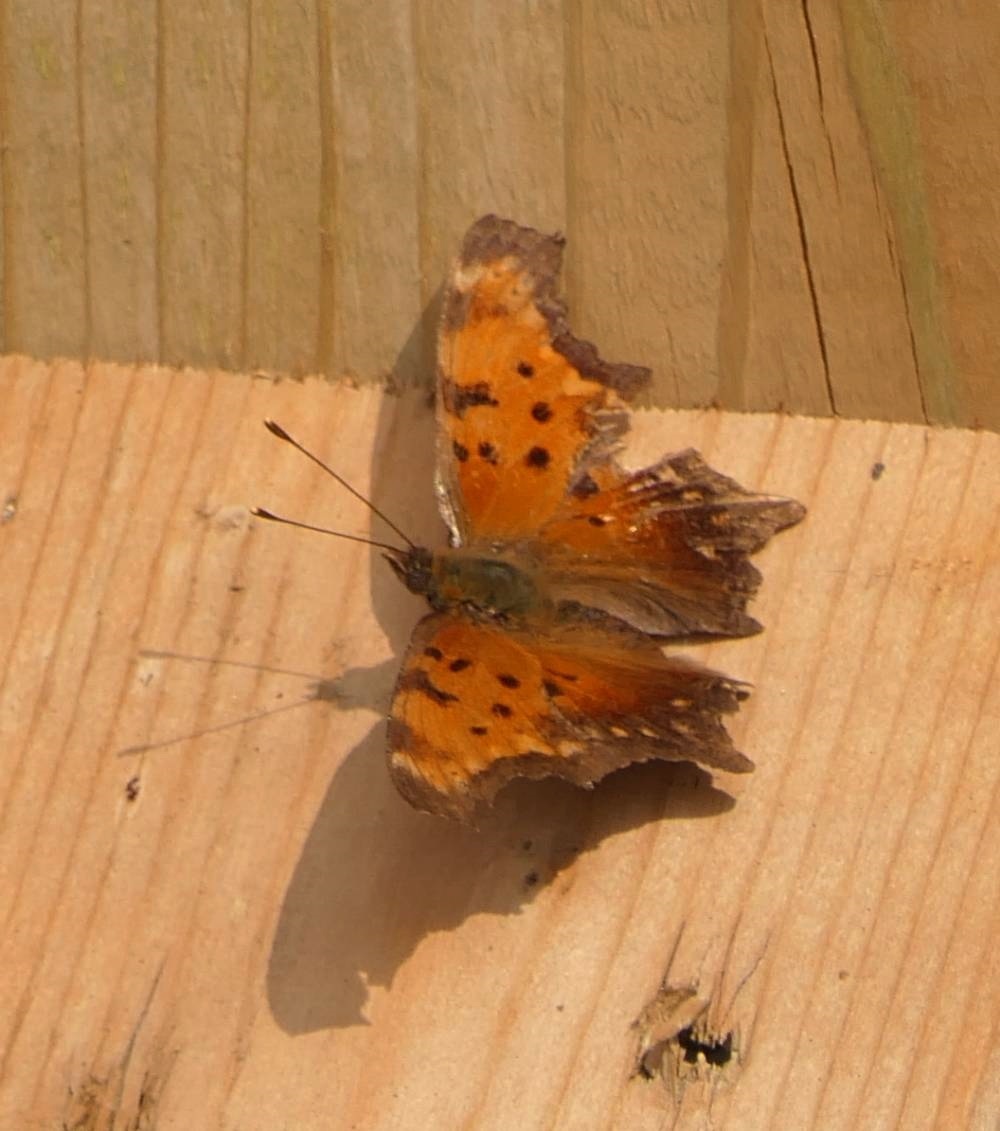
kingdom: Animalia
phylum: Arthropoda
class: Insecta
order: Lepidoptera
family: Nymphalidae
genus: Polygonia
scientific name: Polygonia progne
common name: Gray comma
